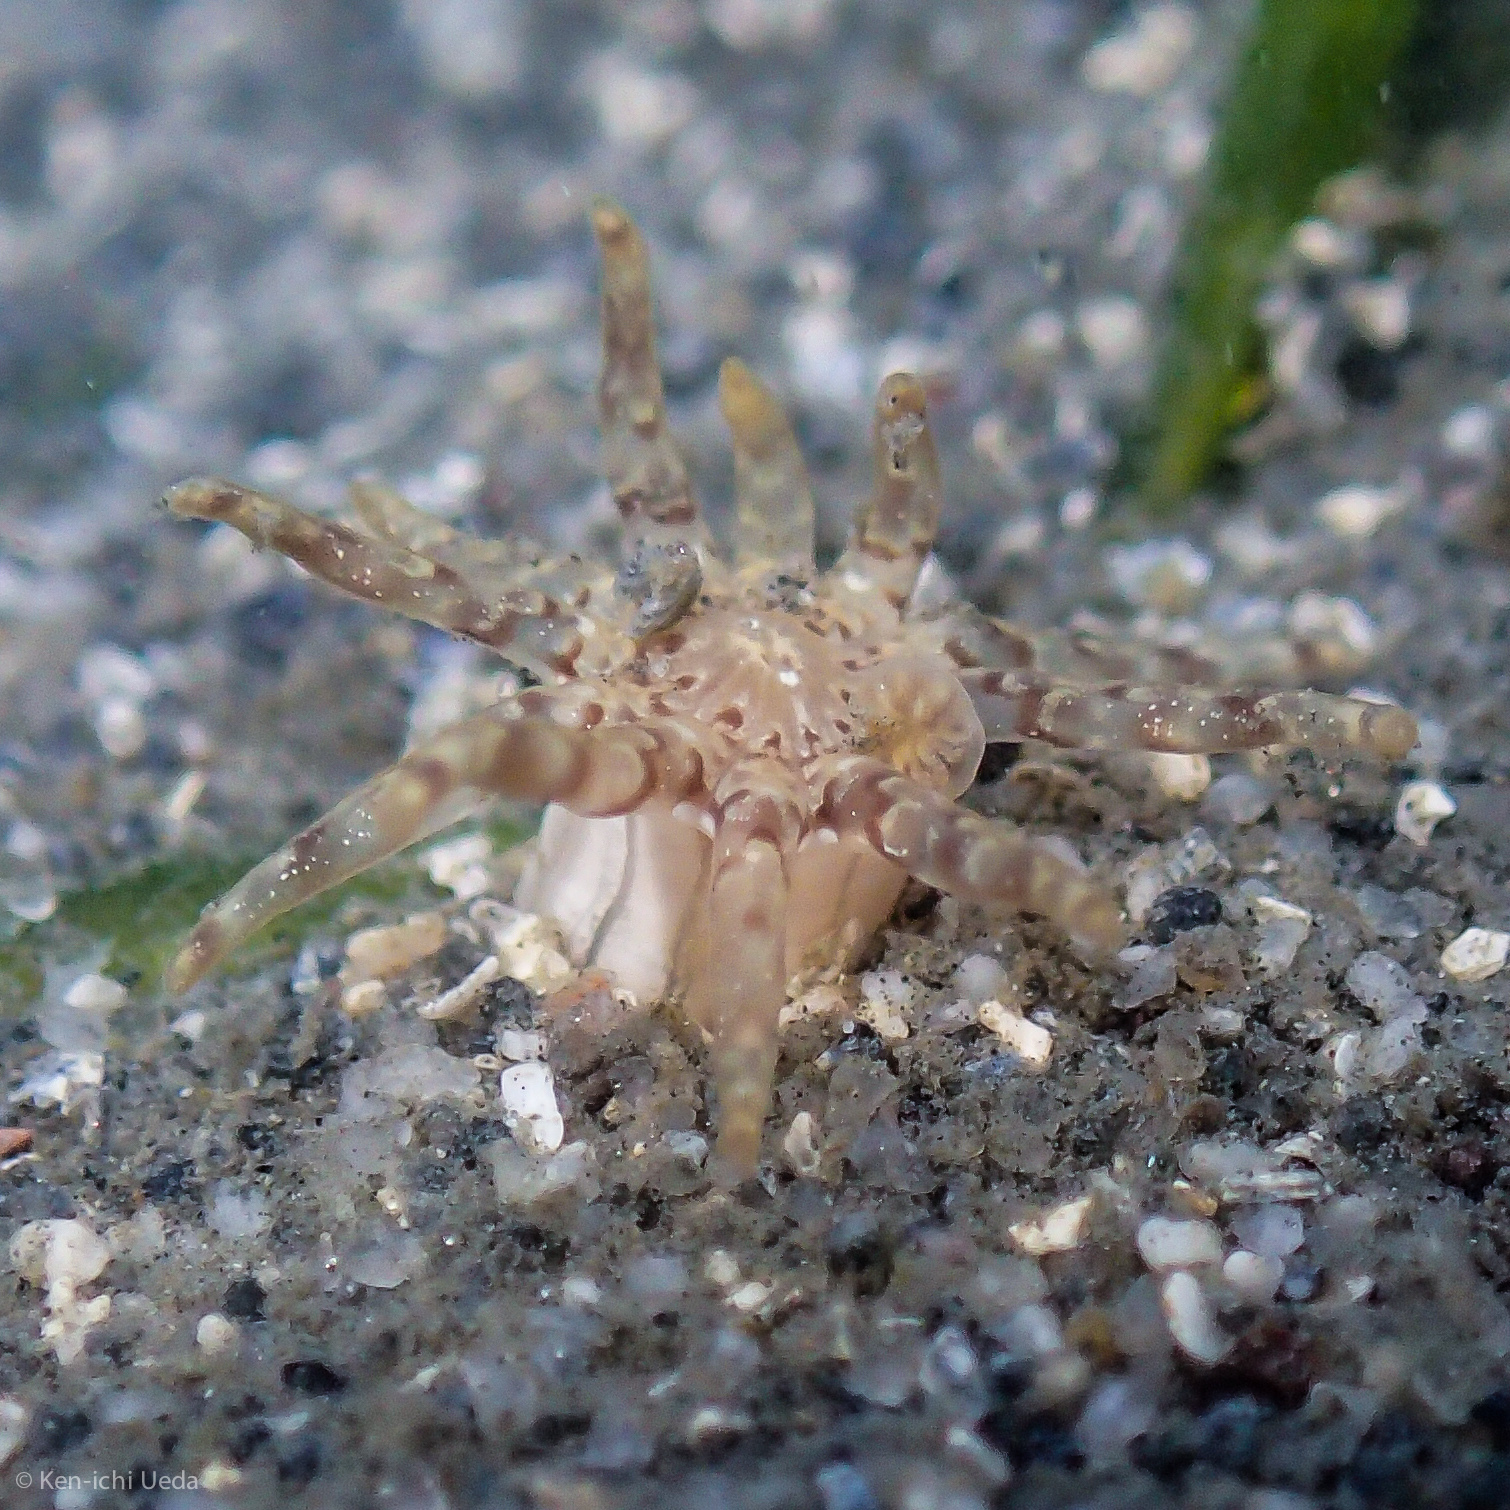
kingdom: Animalia
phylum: Cnidaria
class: Anthozoa
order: Actiniaria
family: Halcampidae
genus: Halcampa
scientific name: Halcampa crypta
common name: Cryptic burrowing anemone
